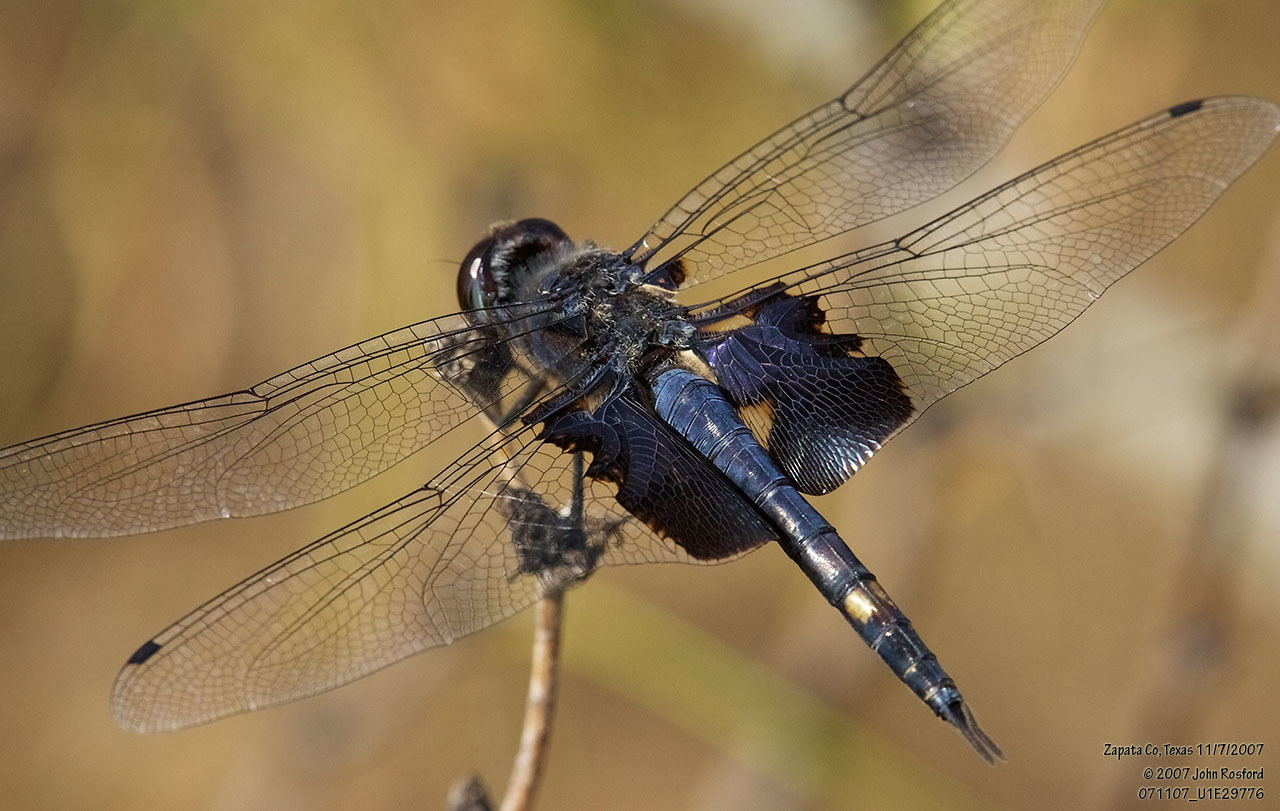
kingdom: Animalia
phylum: Arthropoda
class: Insecta
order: Odonata
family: Libellulidae
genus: Tramea
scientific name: Tramea lacerata
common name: Black saddlebags
